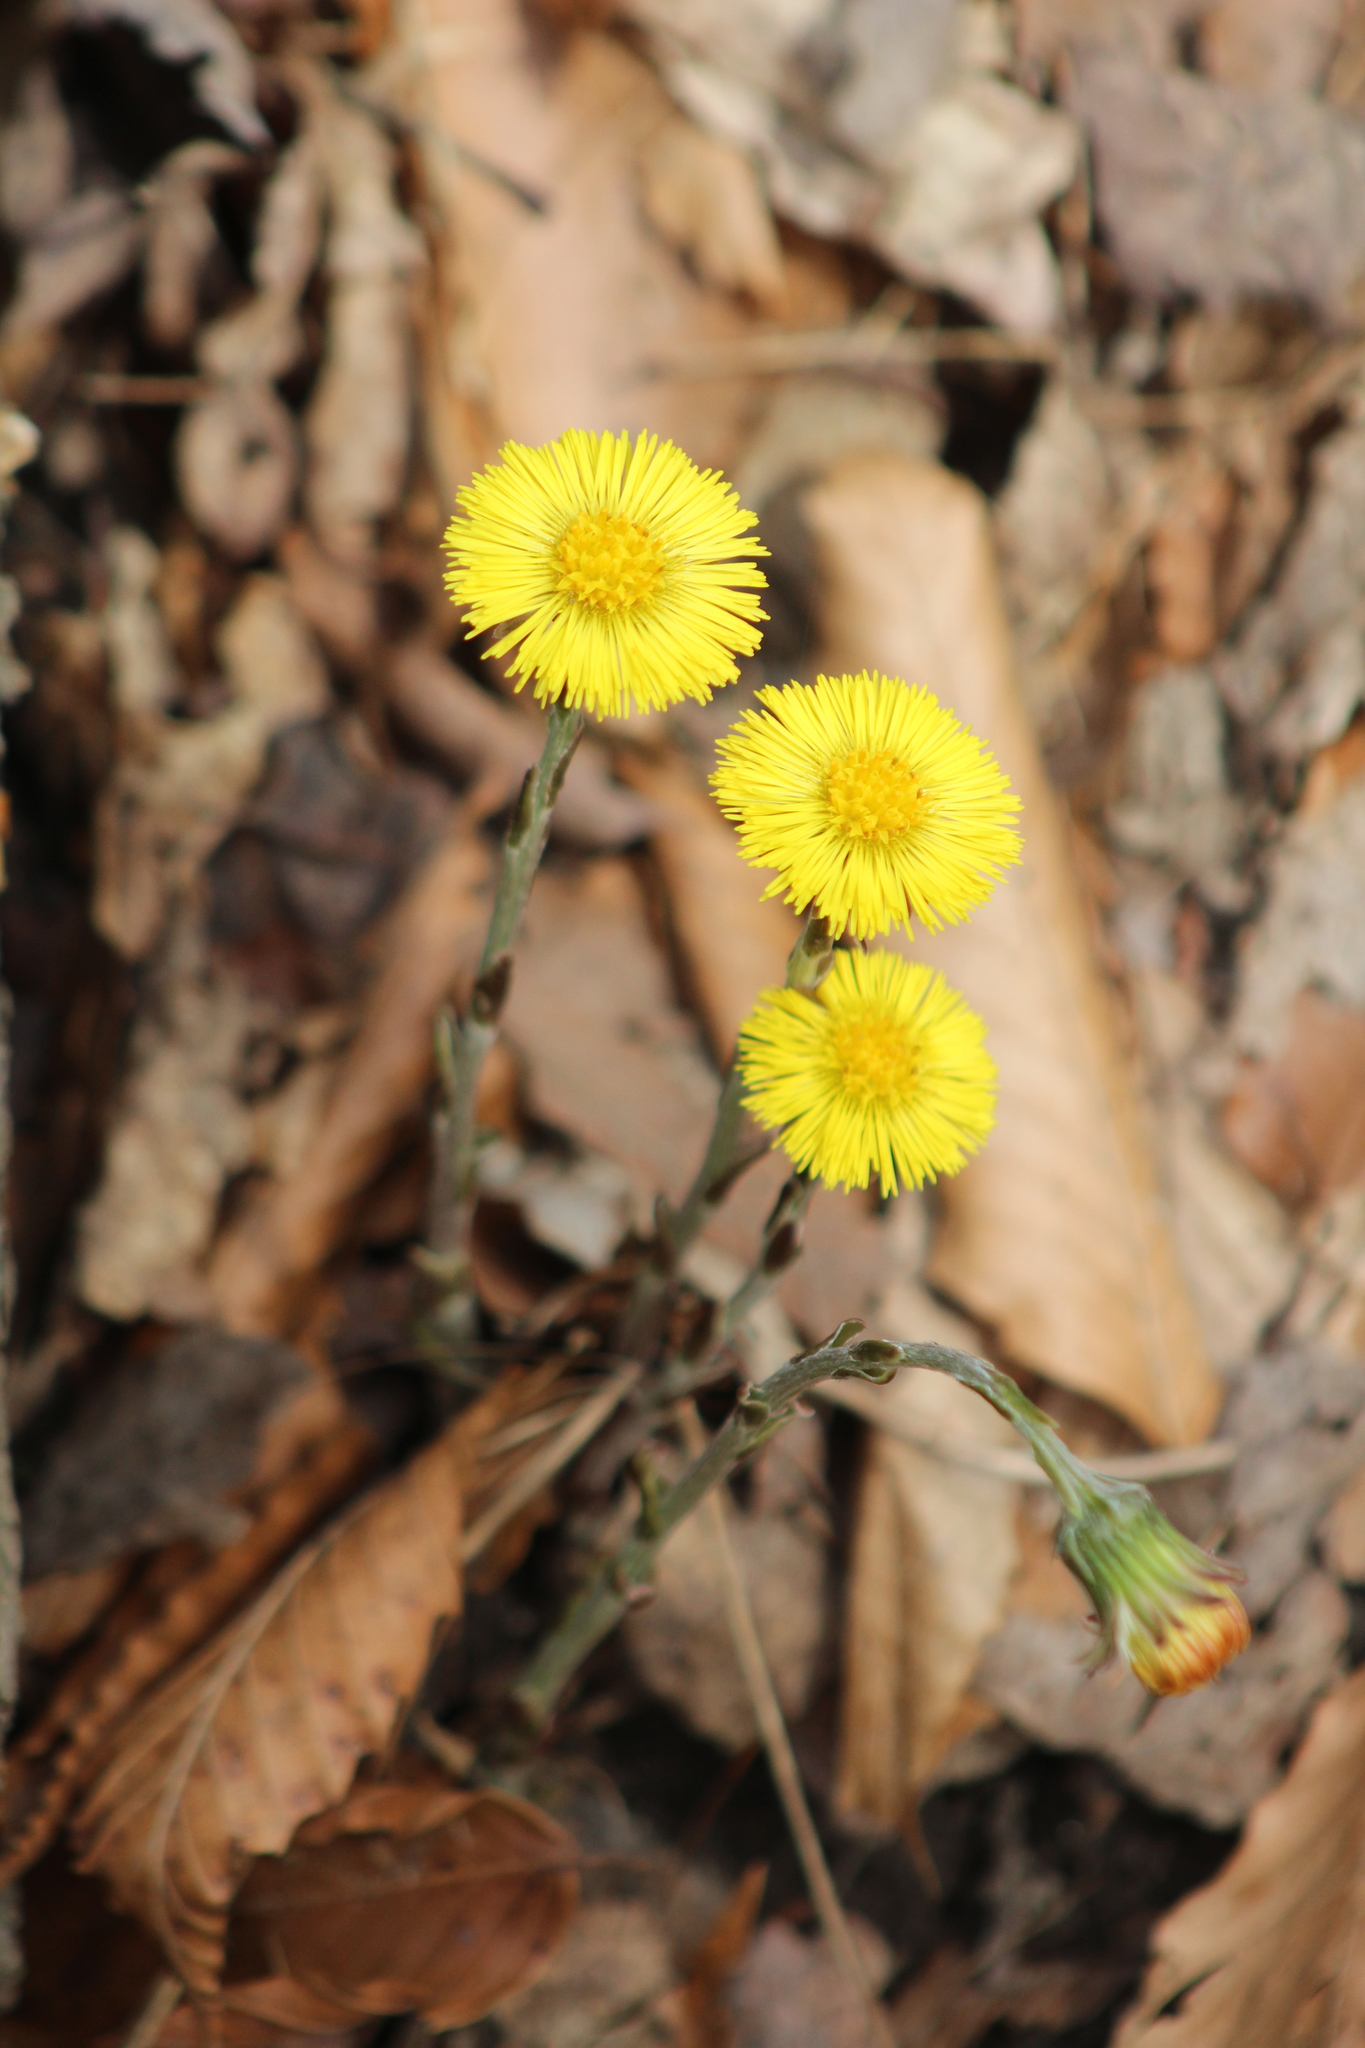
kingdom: Plantae
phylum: Tracheophyta
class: Magnoliopsida
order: Asterales
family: Asteraceae
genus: Tussilago
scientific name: Tussilago farfara
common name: Coltsfoot
